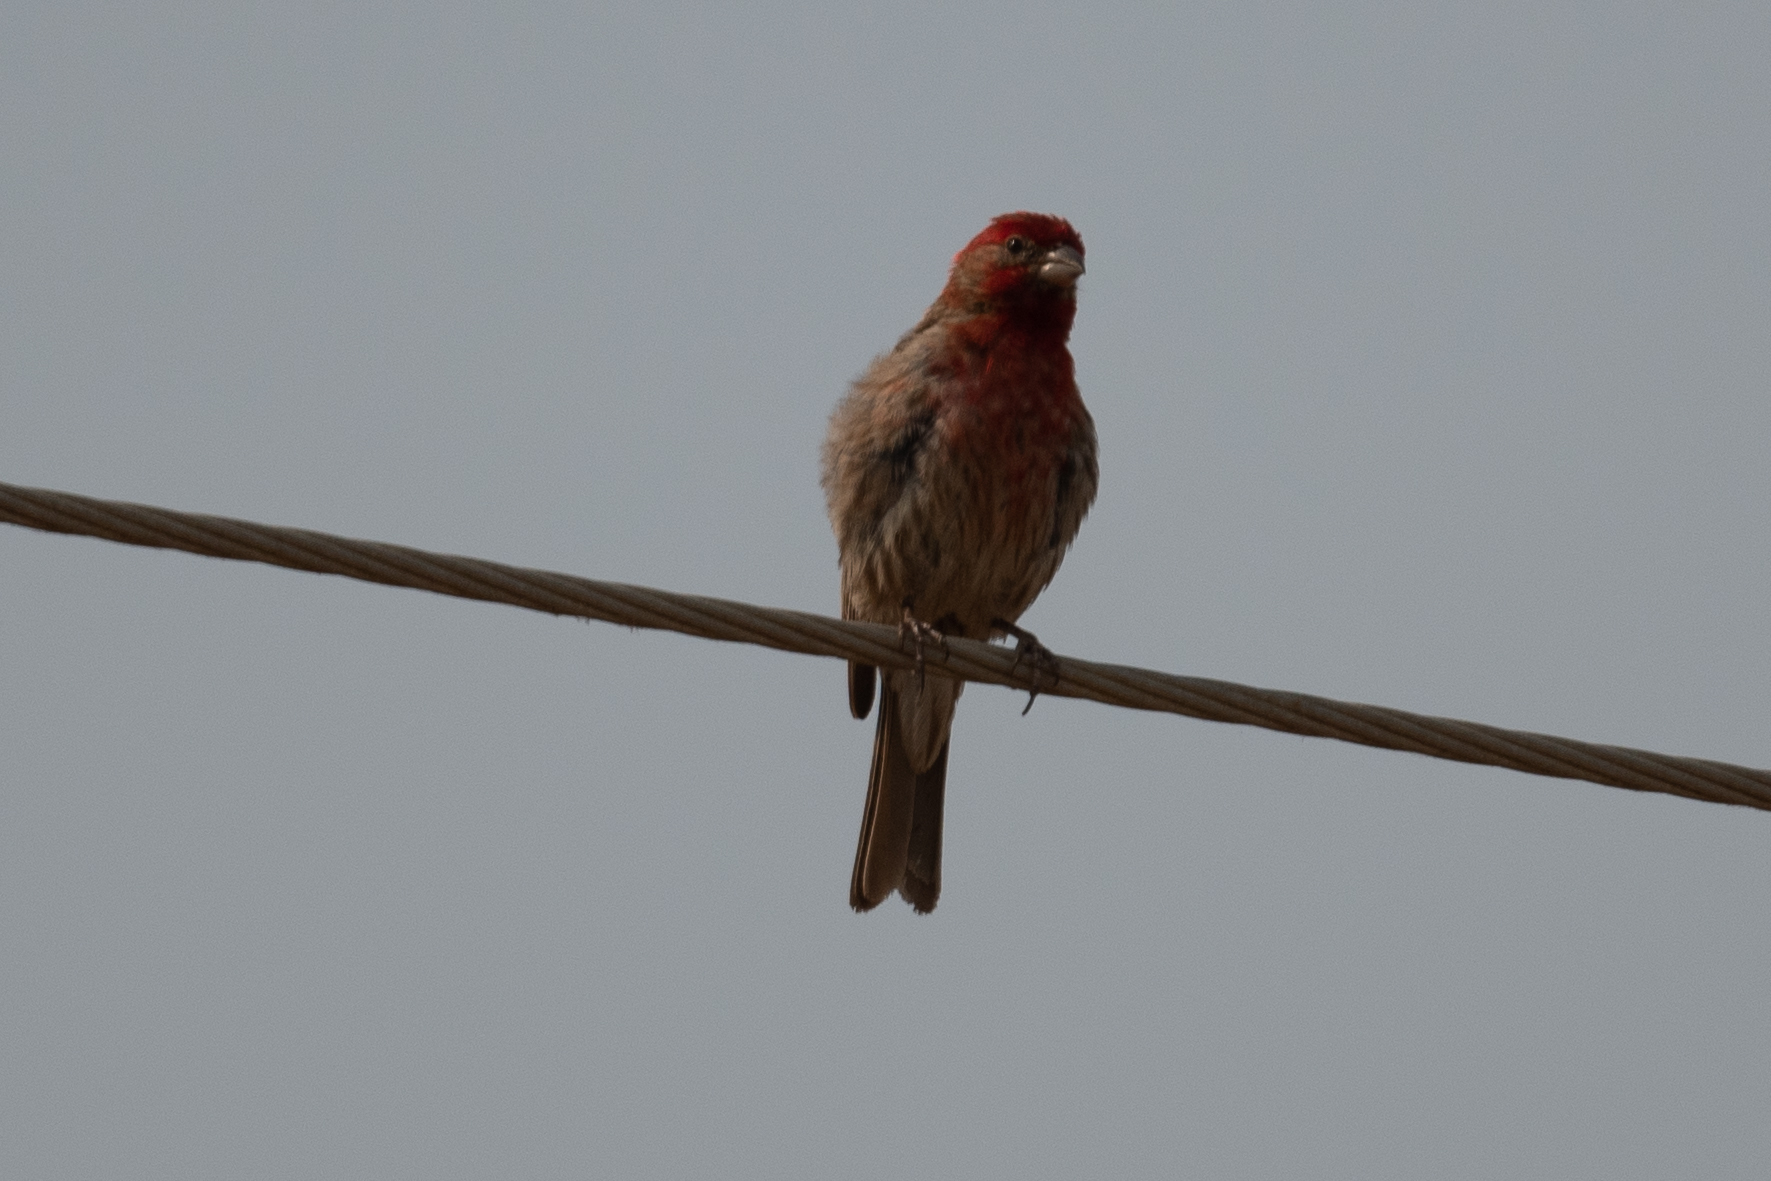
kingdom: Animalia
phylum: Chordata
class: Aves
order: Passeriformes
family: Fringillidae
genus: Haemorhous
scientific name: Haemorhous mexicanus
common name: House finch
